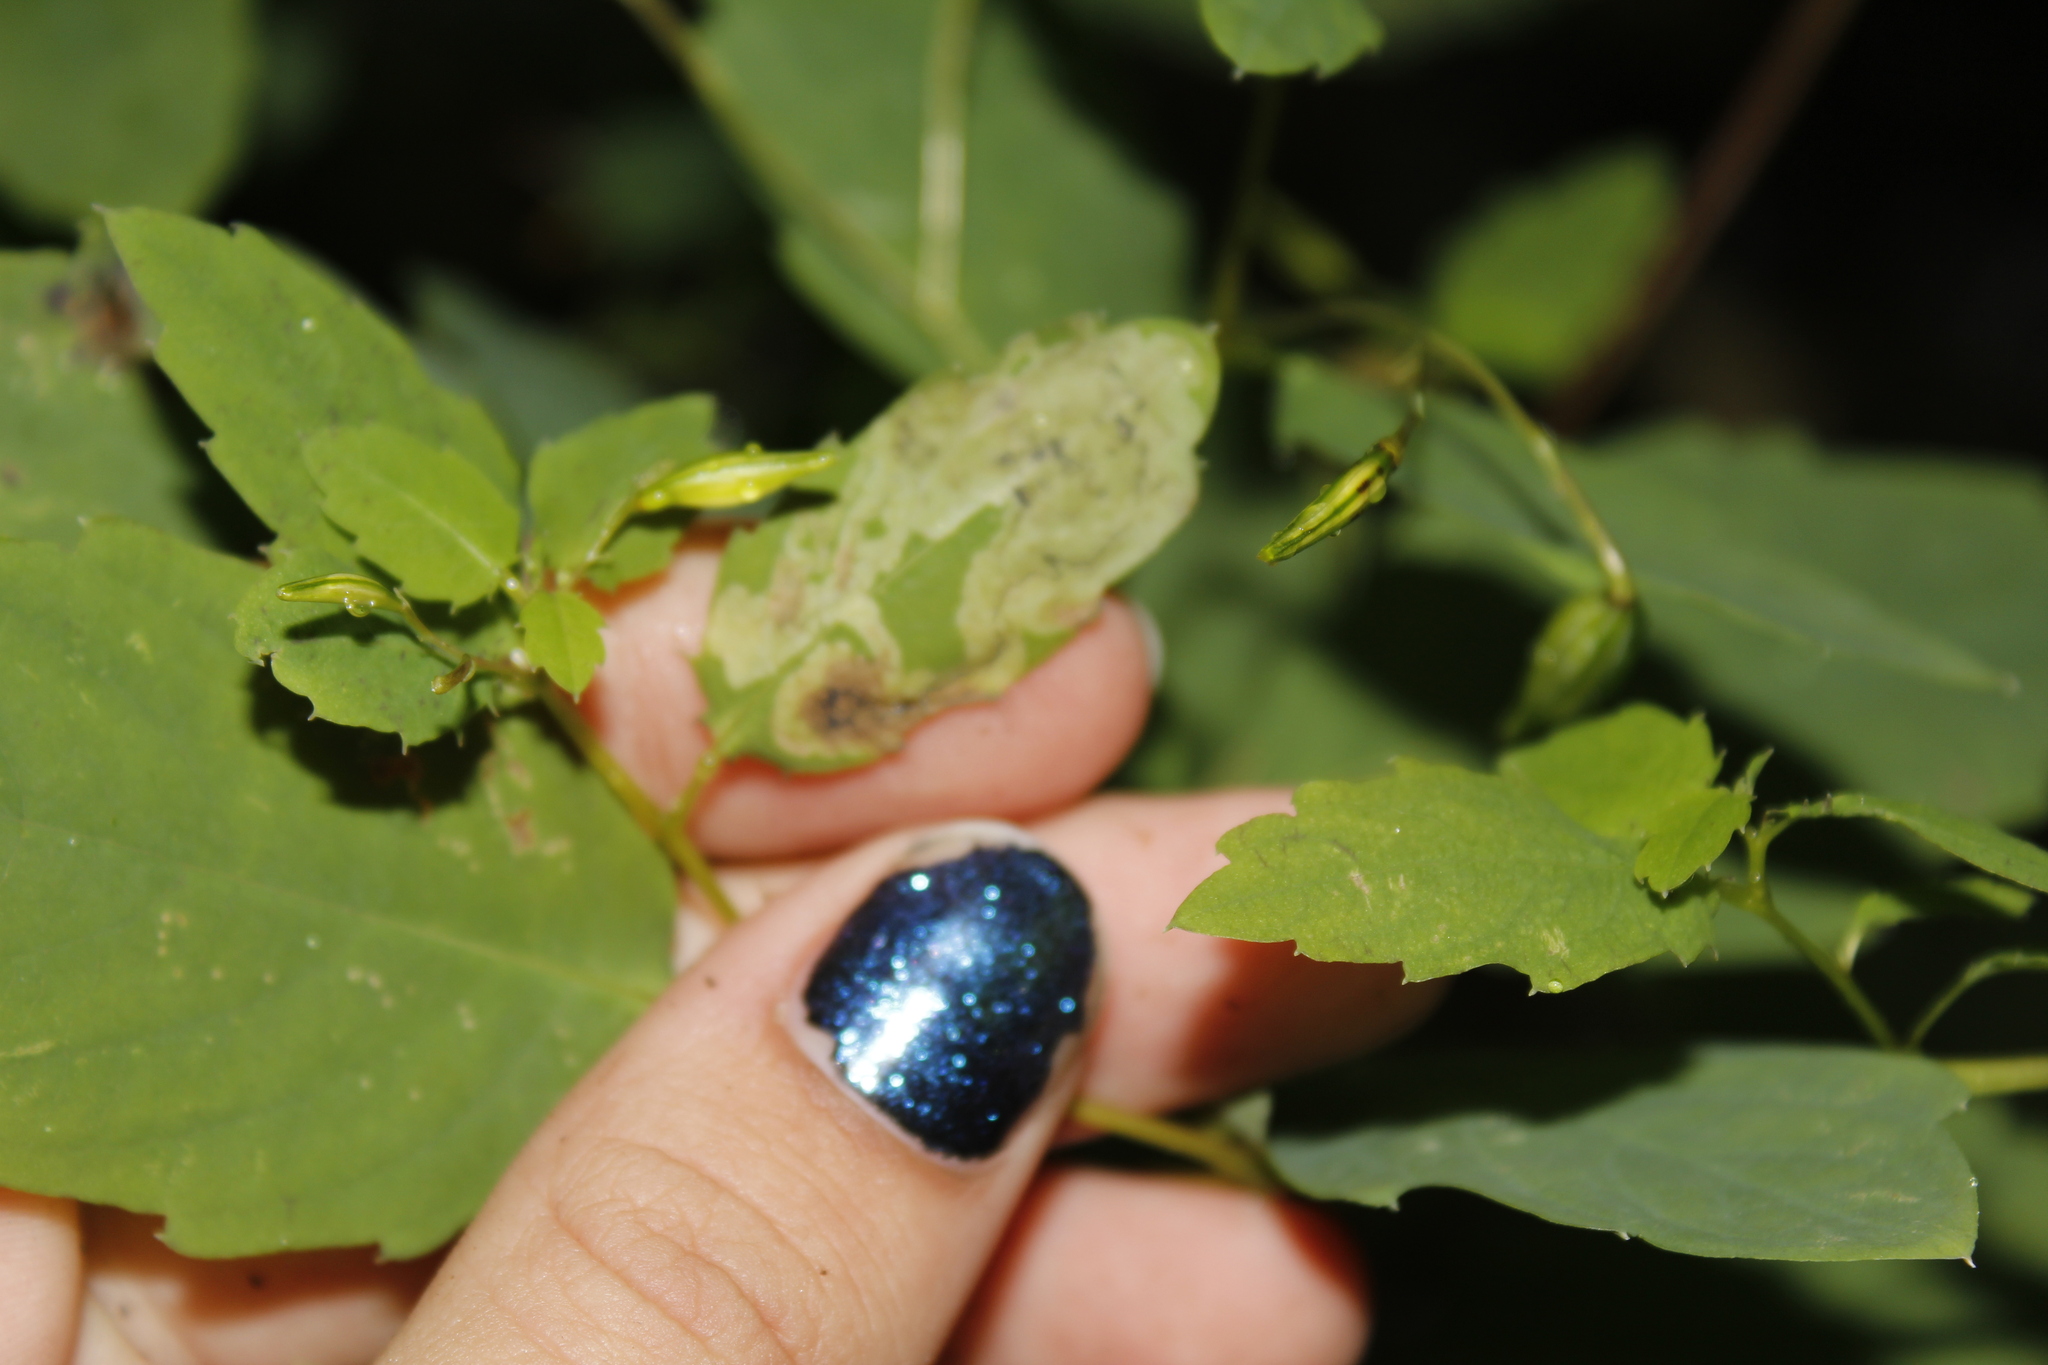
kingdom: Animalia
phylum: Arthropoda
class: Insecta
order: Diptera
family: Agromyzidae
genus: Phytoliriomyza
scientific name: Phytoliriomyza melampyga
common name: Jewelweed leaf-miner fly
